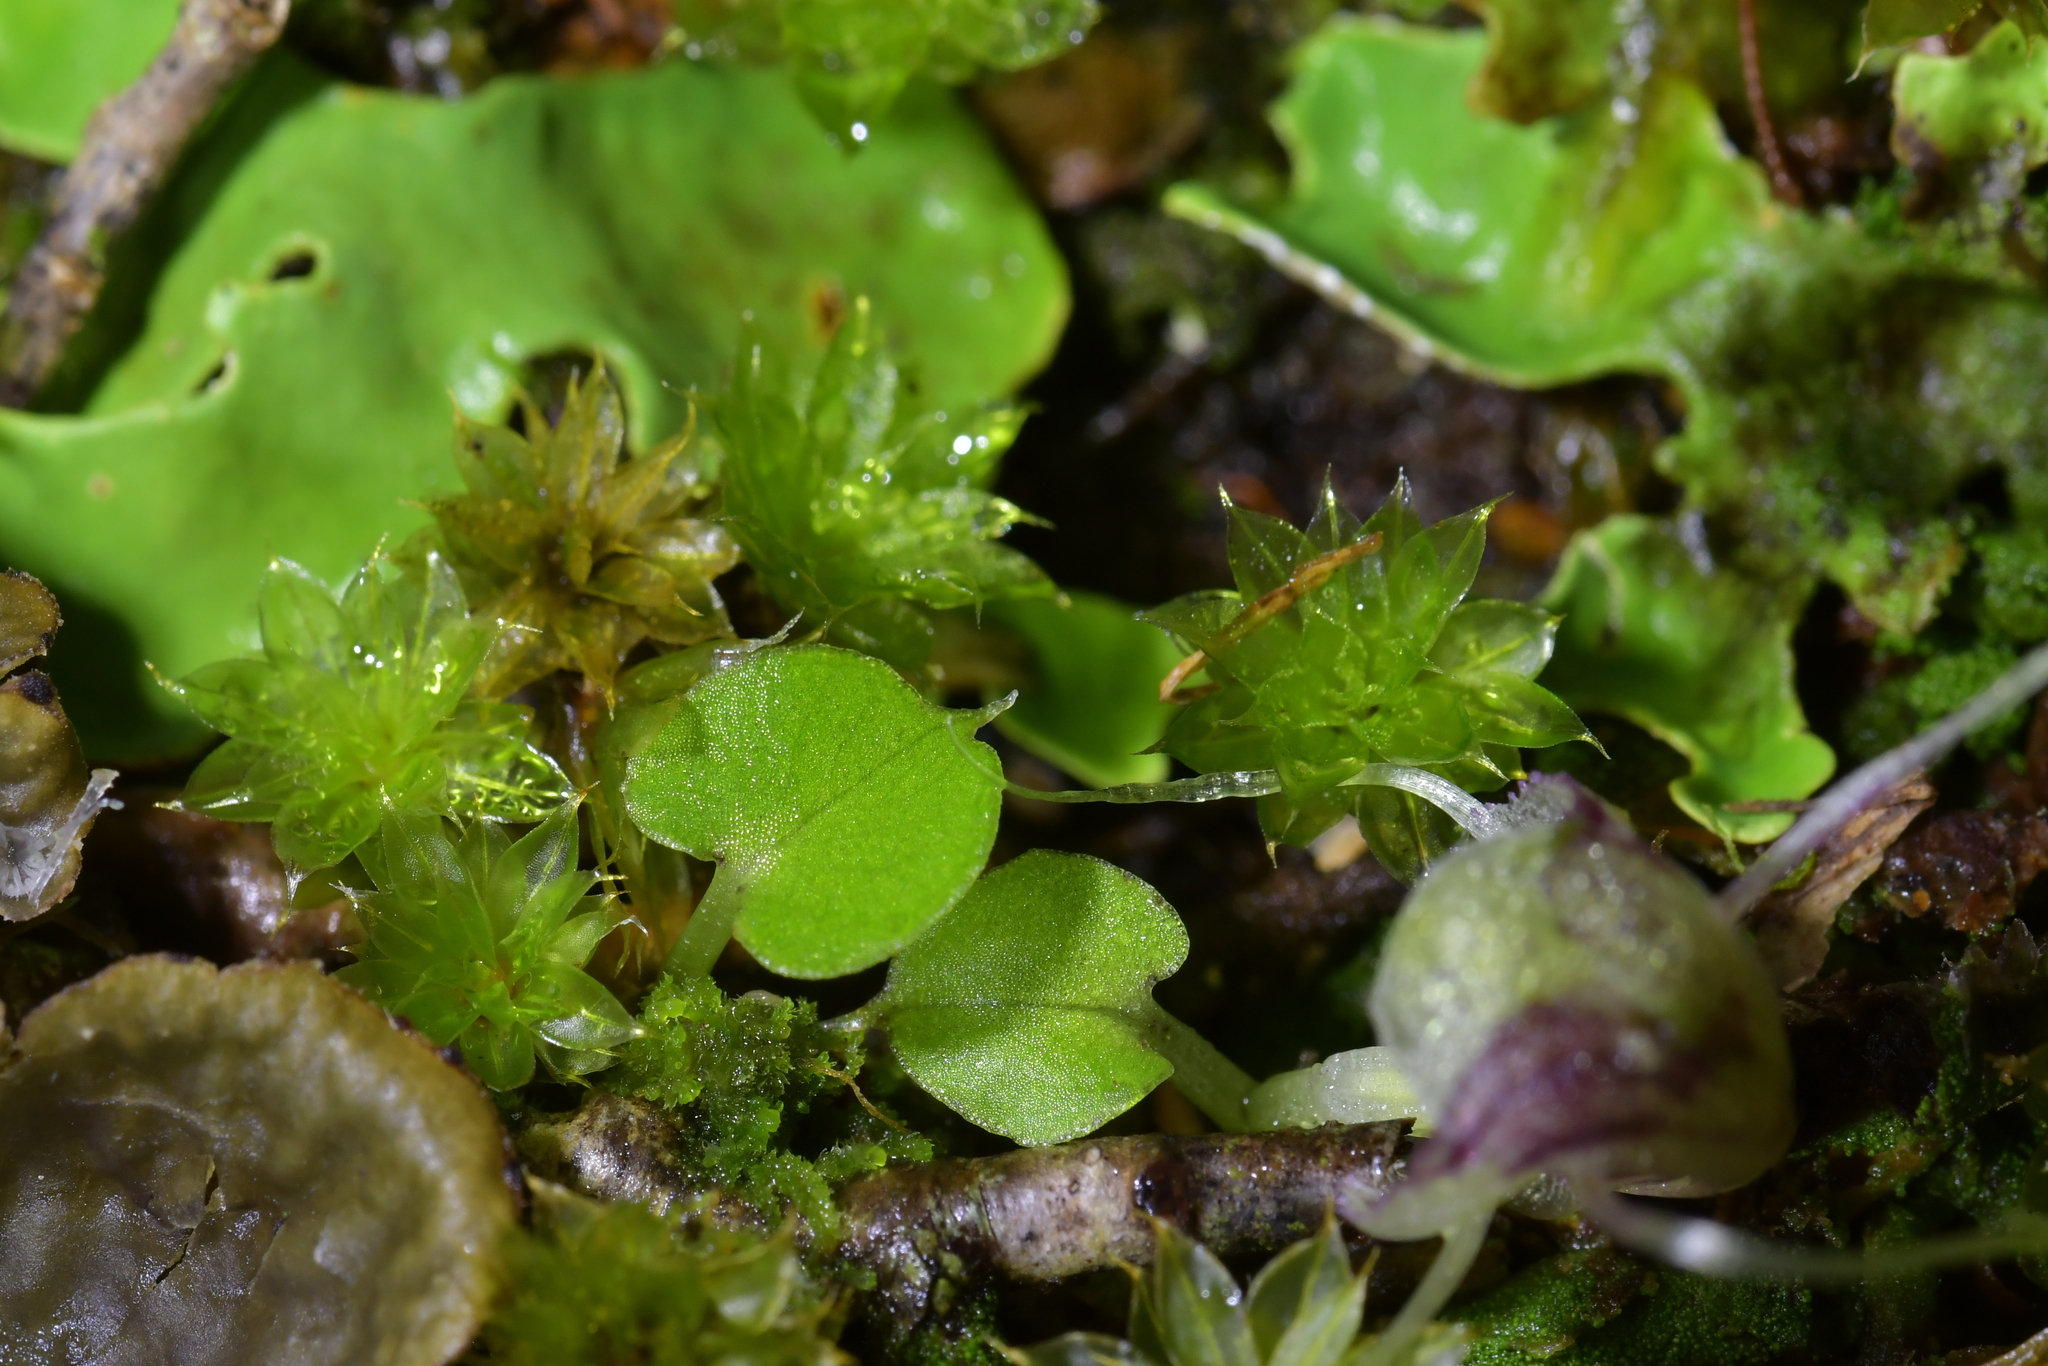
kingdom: Plantae
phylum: Tracheophyta
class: Liliopsida
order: Asparagales
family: Orchidaceae
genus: Corybas
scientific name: Corybas walliae
